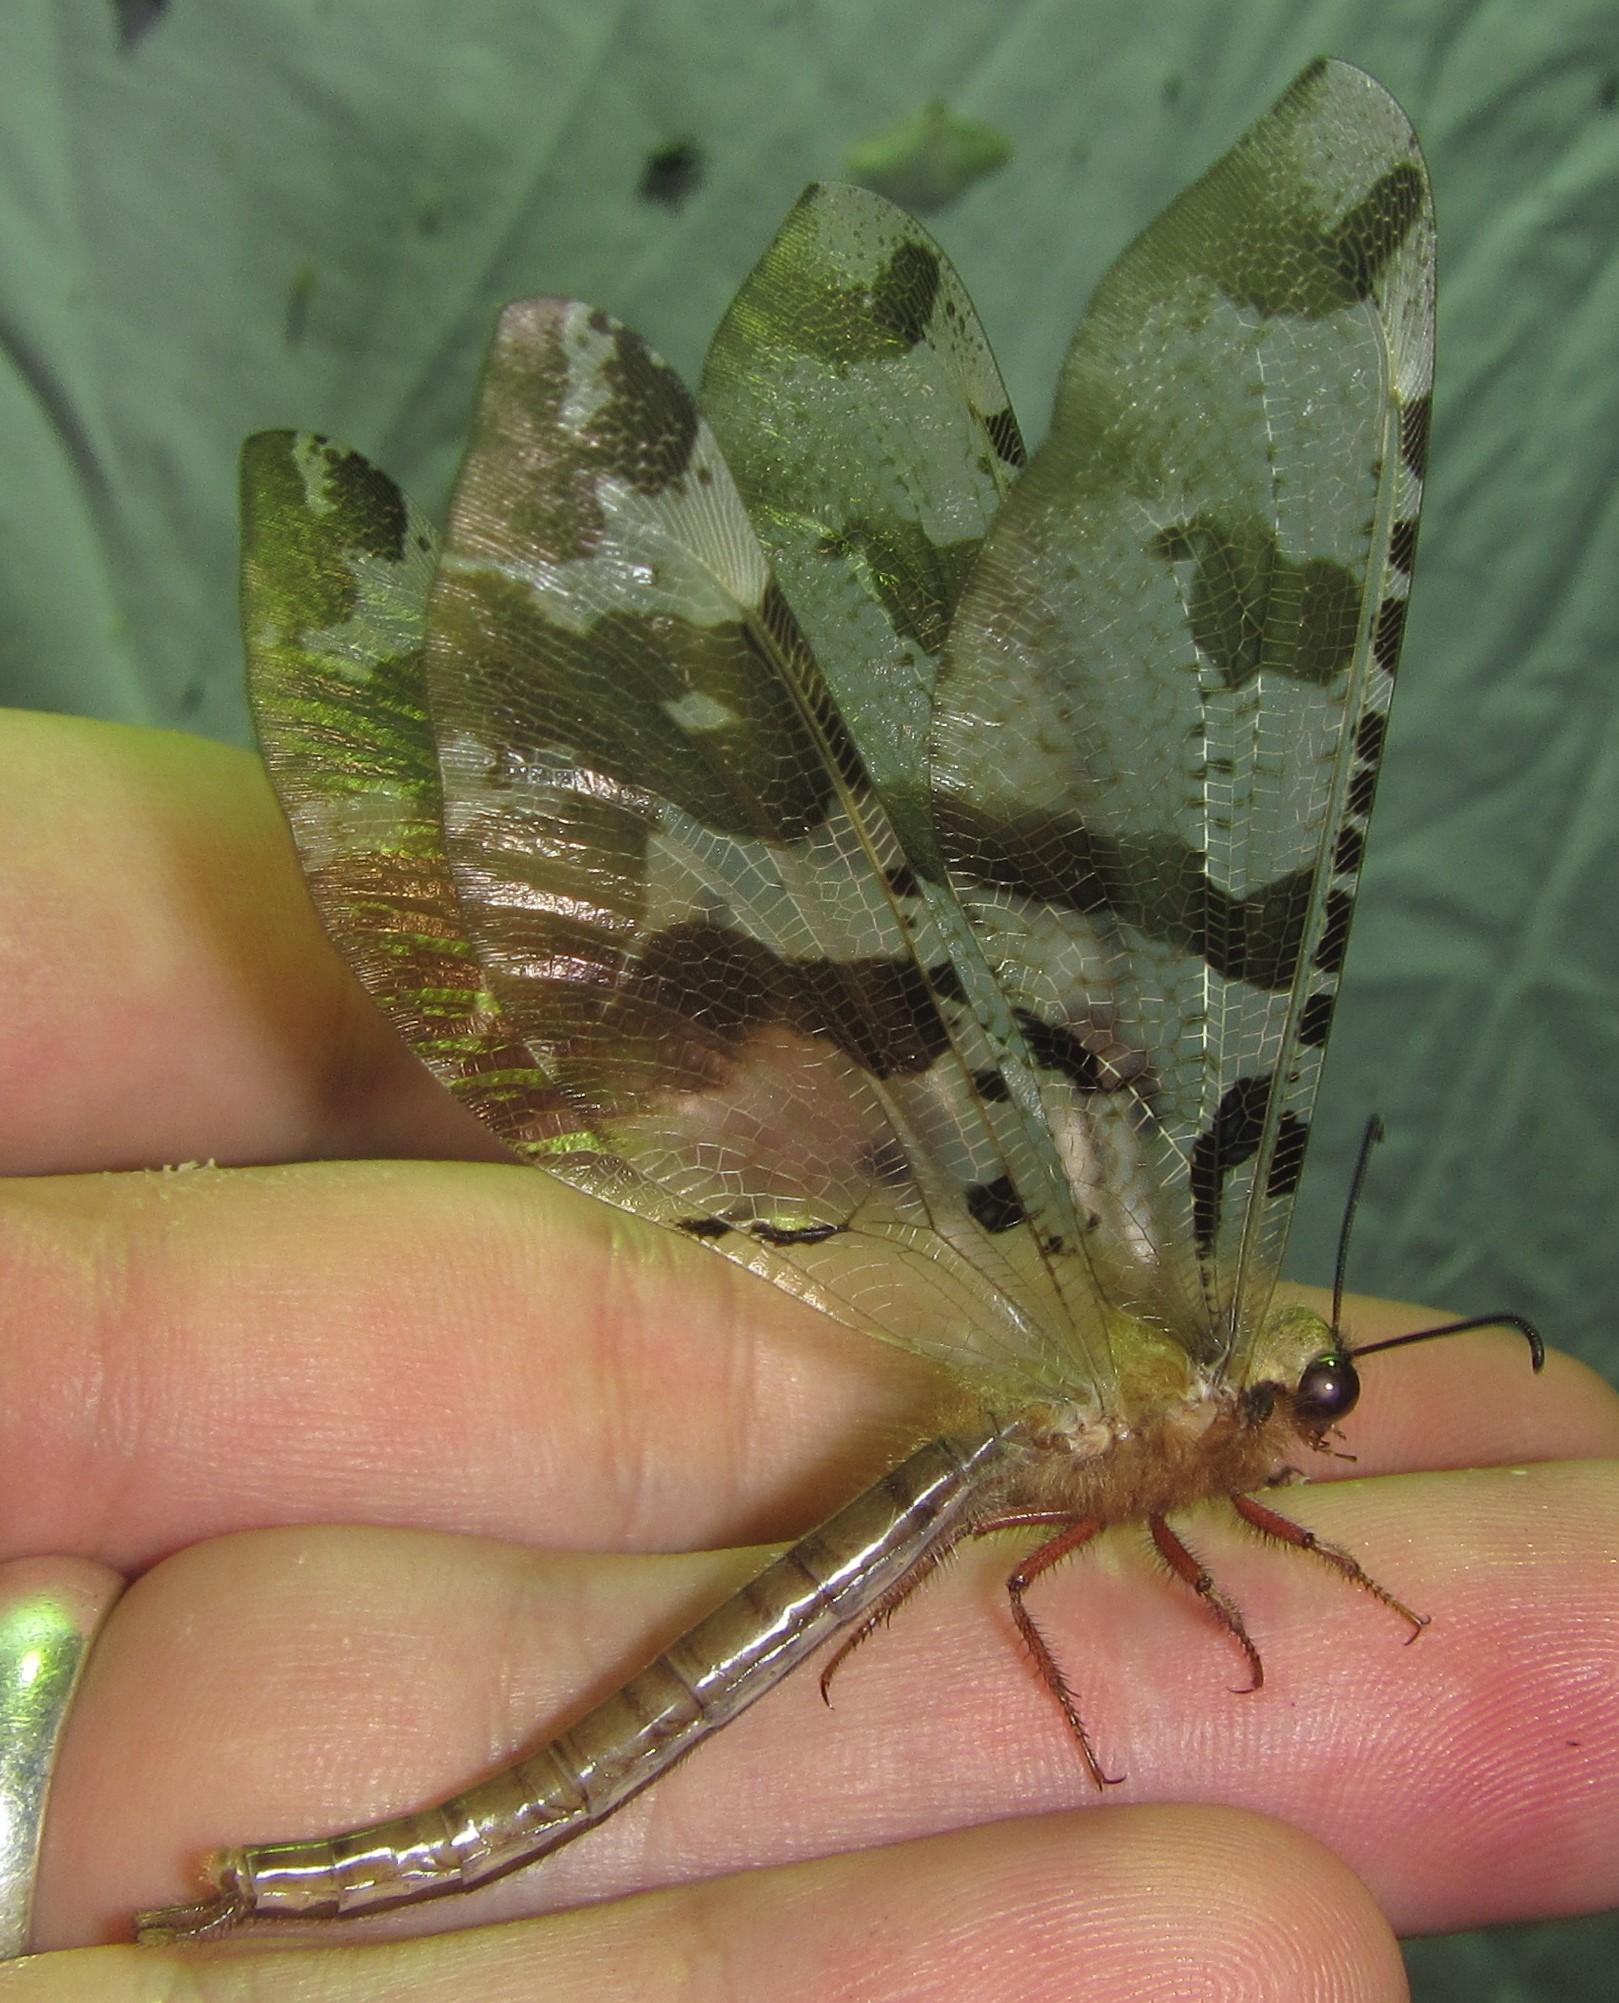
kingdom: Animalia
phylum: Arthropoda
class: Insecta
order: Neuroptera
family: Myrmeleontidae
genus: Lachlathetes
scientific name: Lachlathetes moestus
